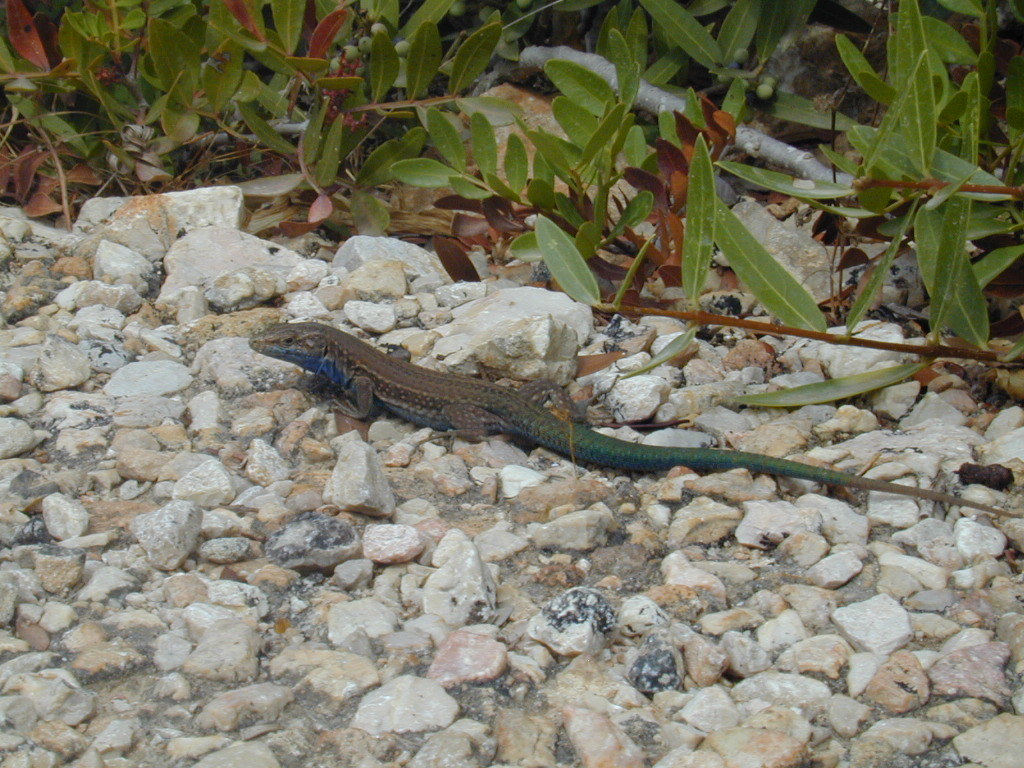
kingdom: Animalia
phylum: Chordata
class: Squamata
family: Lacertidae
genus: Podarcis
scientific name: Podarcis lilfordi
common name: Belearic lizard
